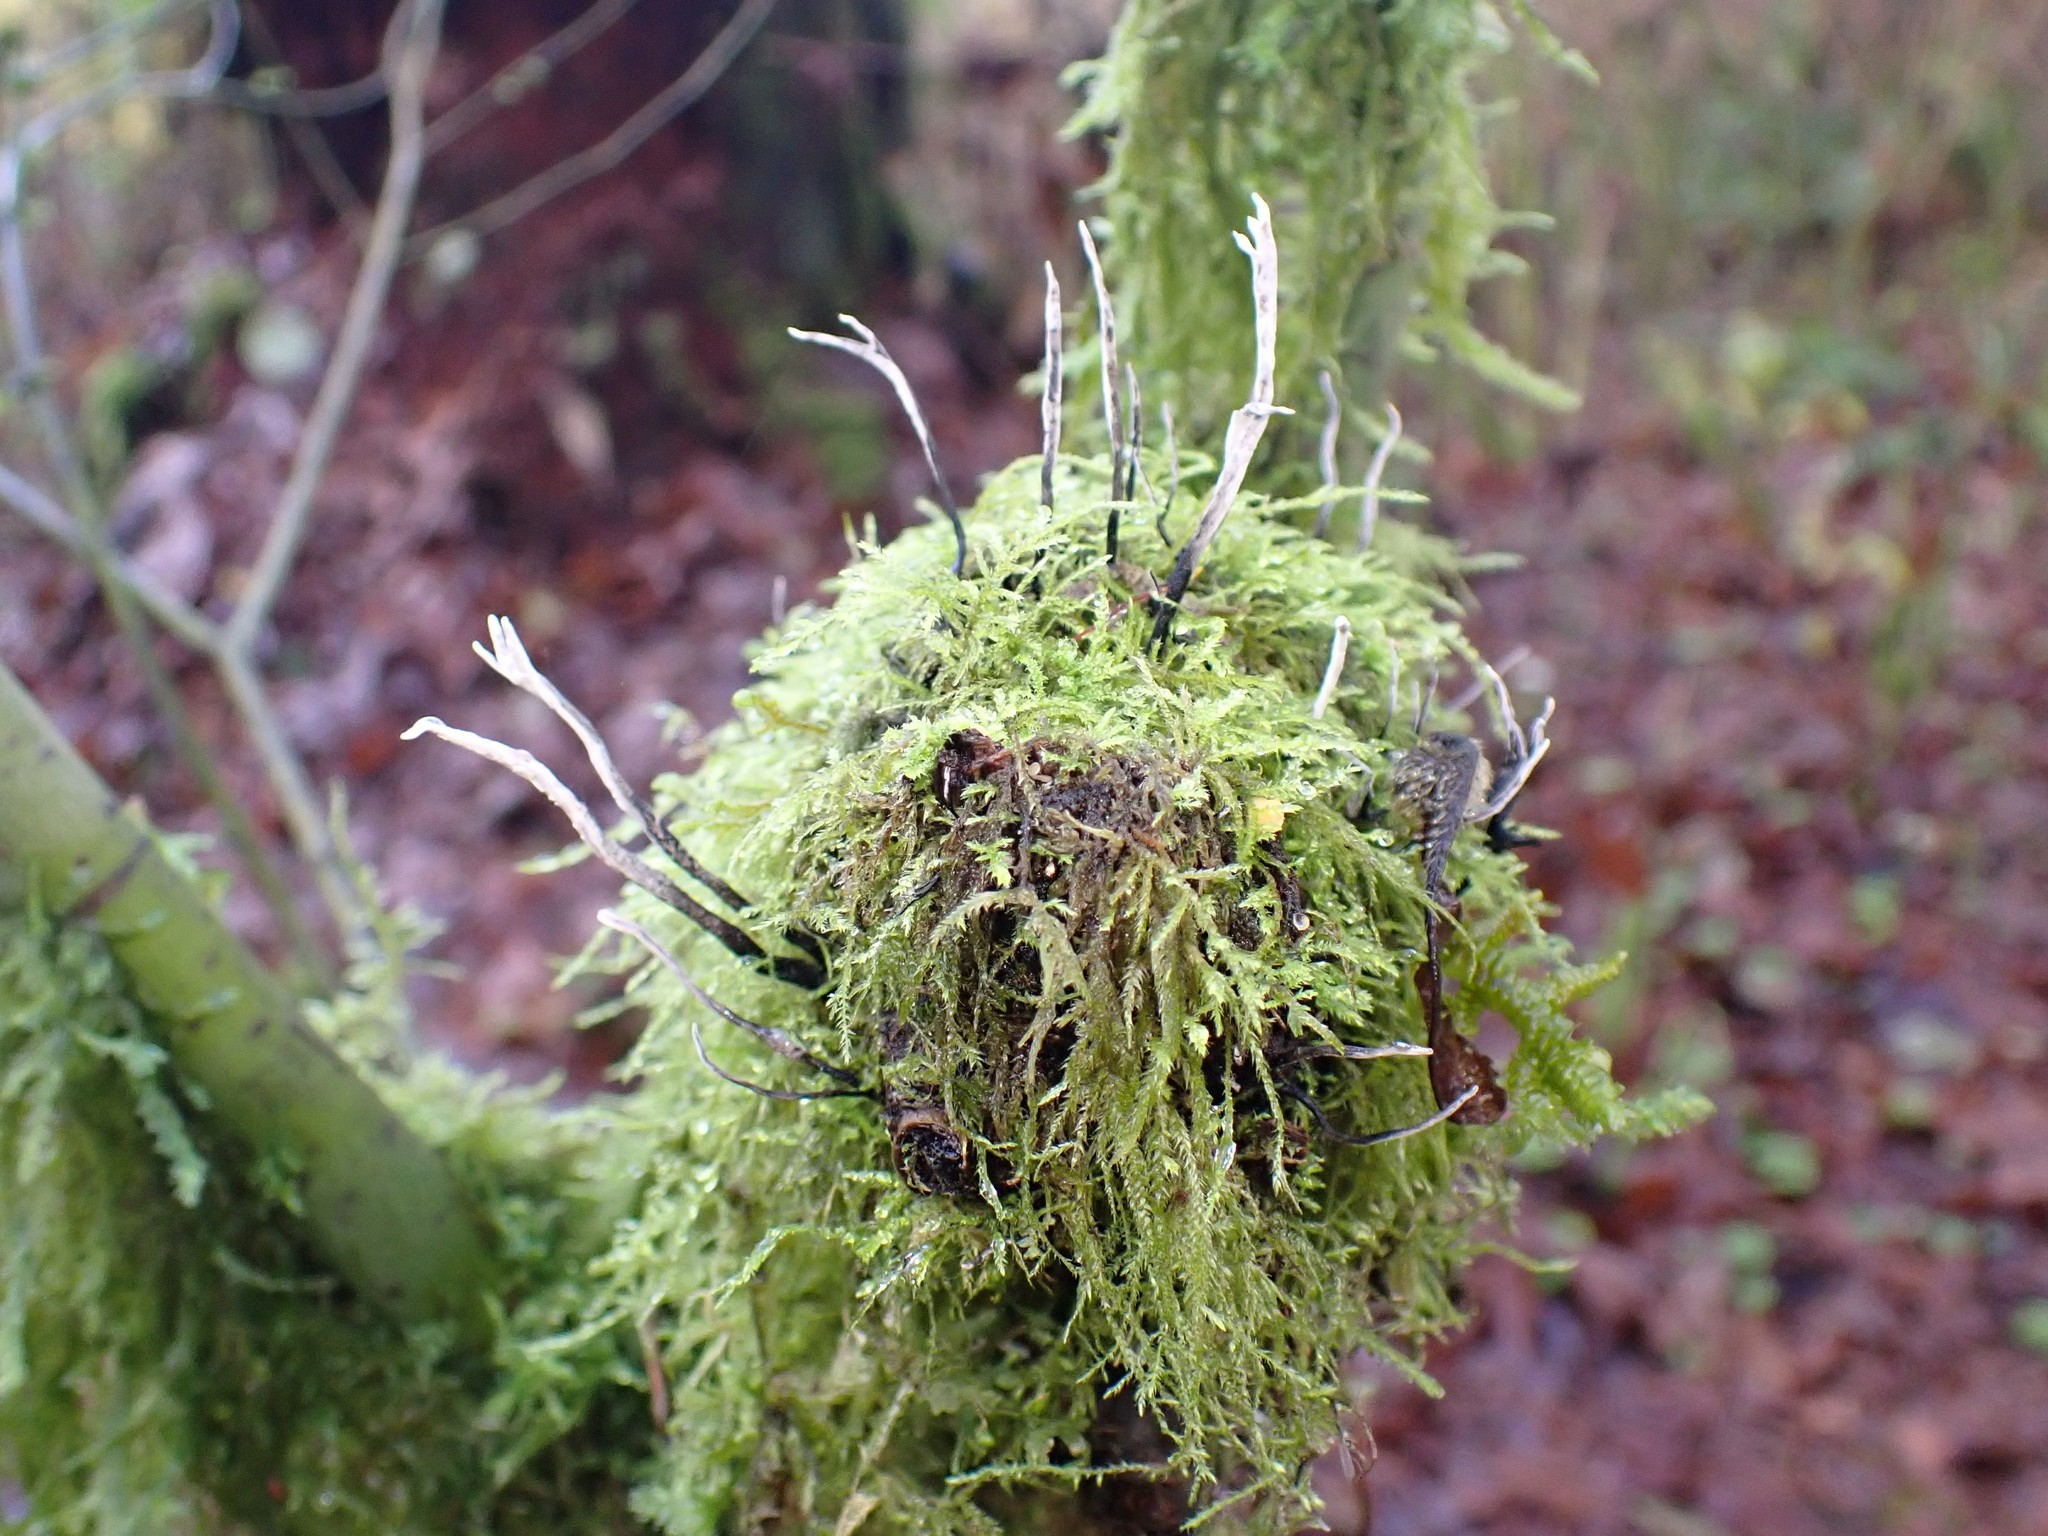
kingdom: Fungi
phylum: Ascomycota
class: Sordariomycetes
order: Xylariales
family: Xylariaceae
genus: Xylaria
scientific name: Xylaria hypoxylon
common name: Candle-snuff fungus
